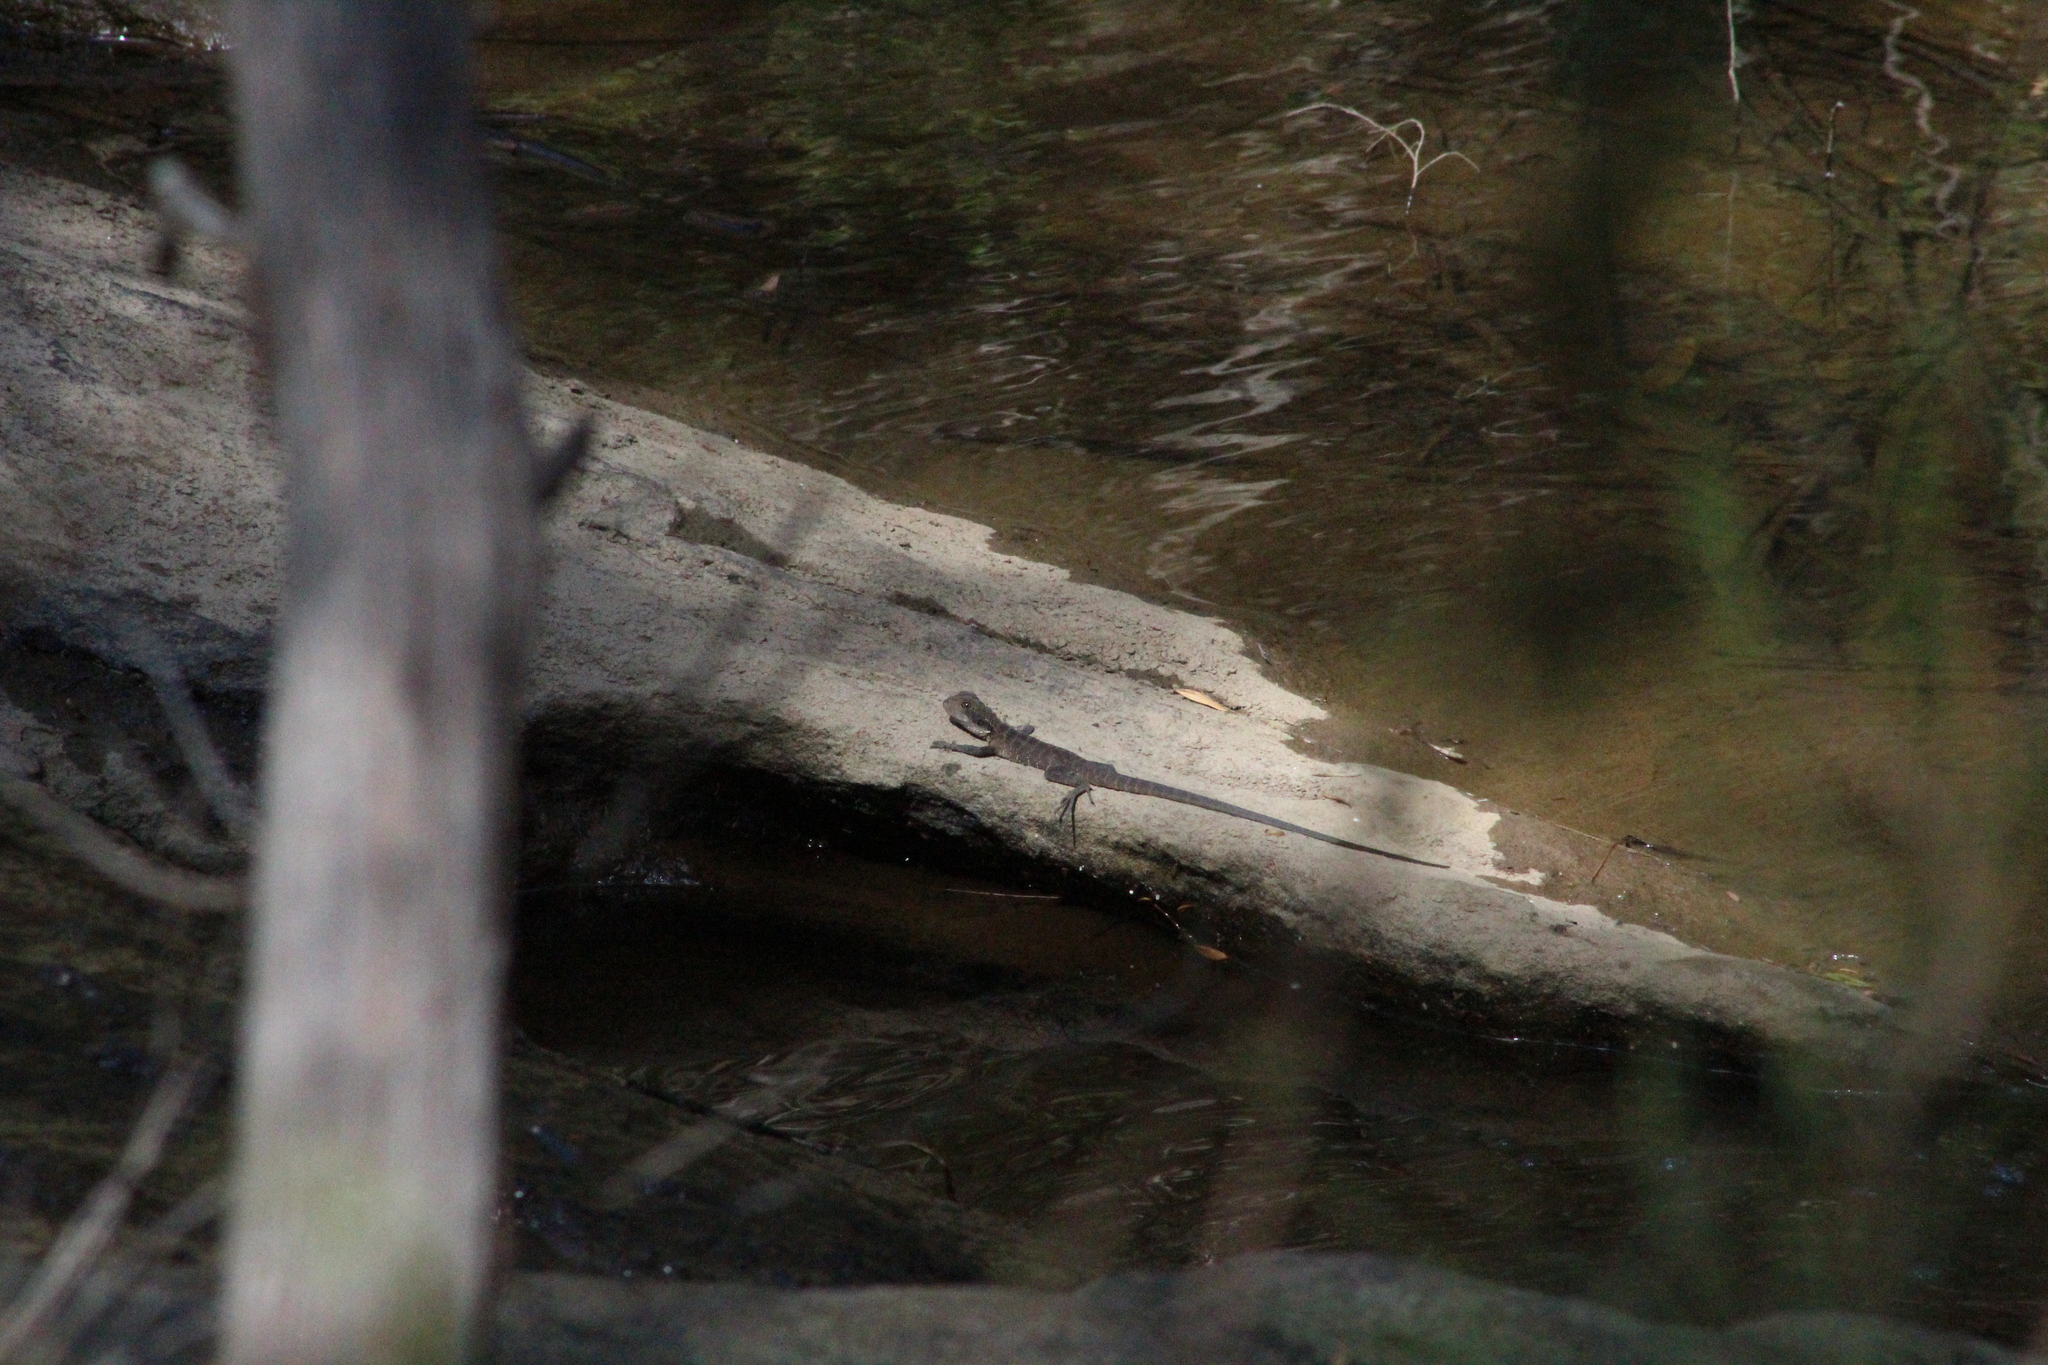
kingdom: Animalia
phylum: Chordata
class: Squamata
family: Agamidae
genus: Intellagama
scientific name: Intellagama lesueurii
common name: Eastern water dragon
